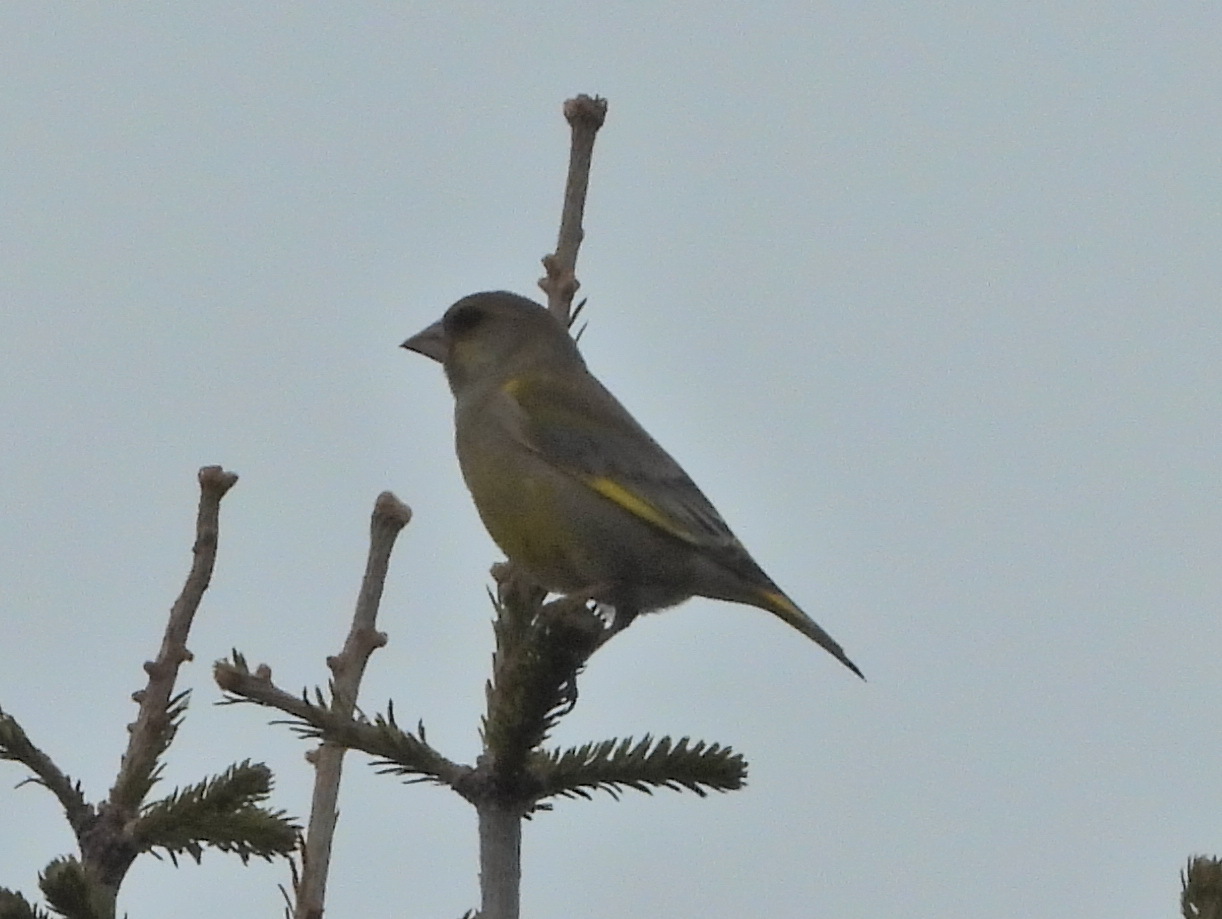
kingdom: Plantae
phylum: Tracheophyta
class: Liliopsida
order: Poales
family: Poaceae
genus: Chloris
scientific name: Chloris chloris
